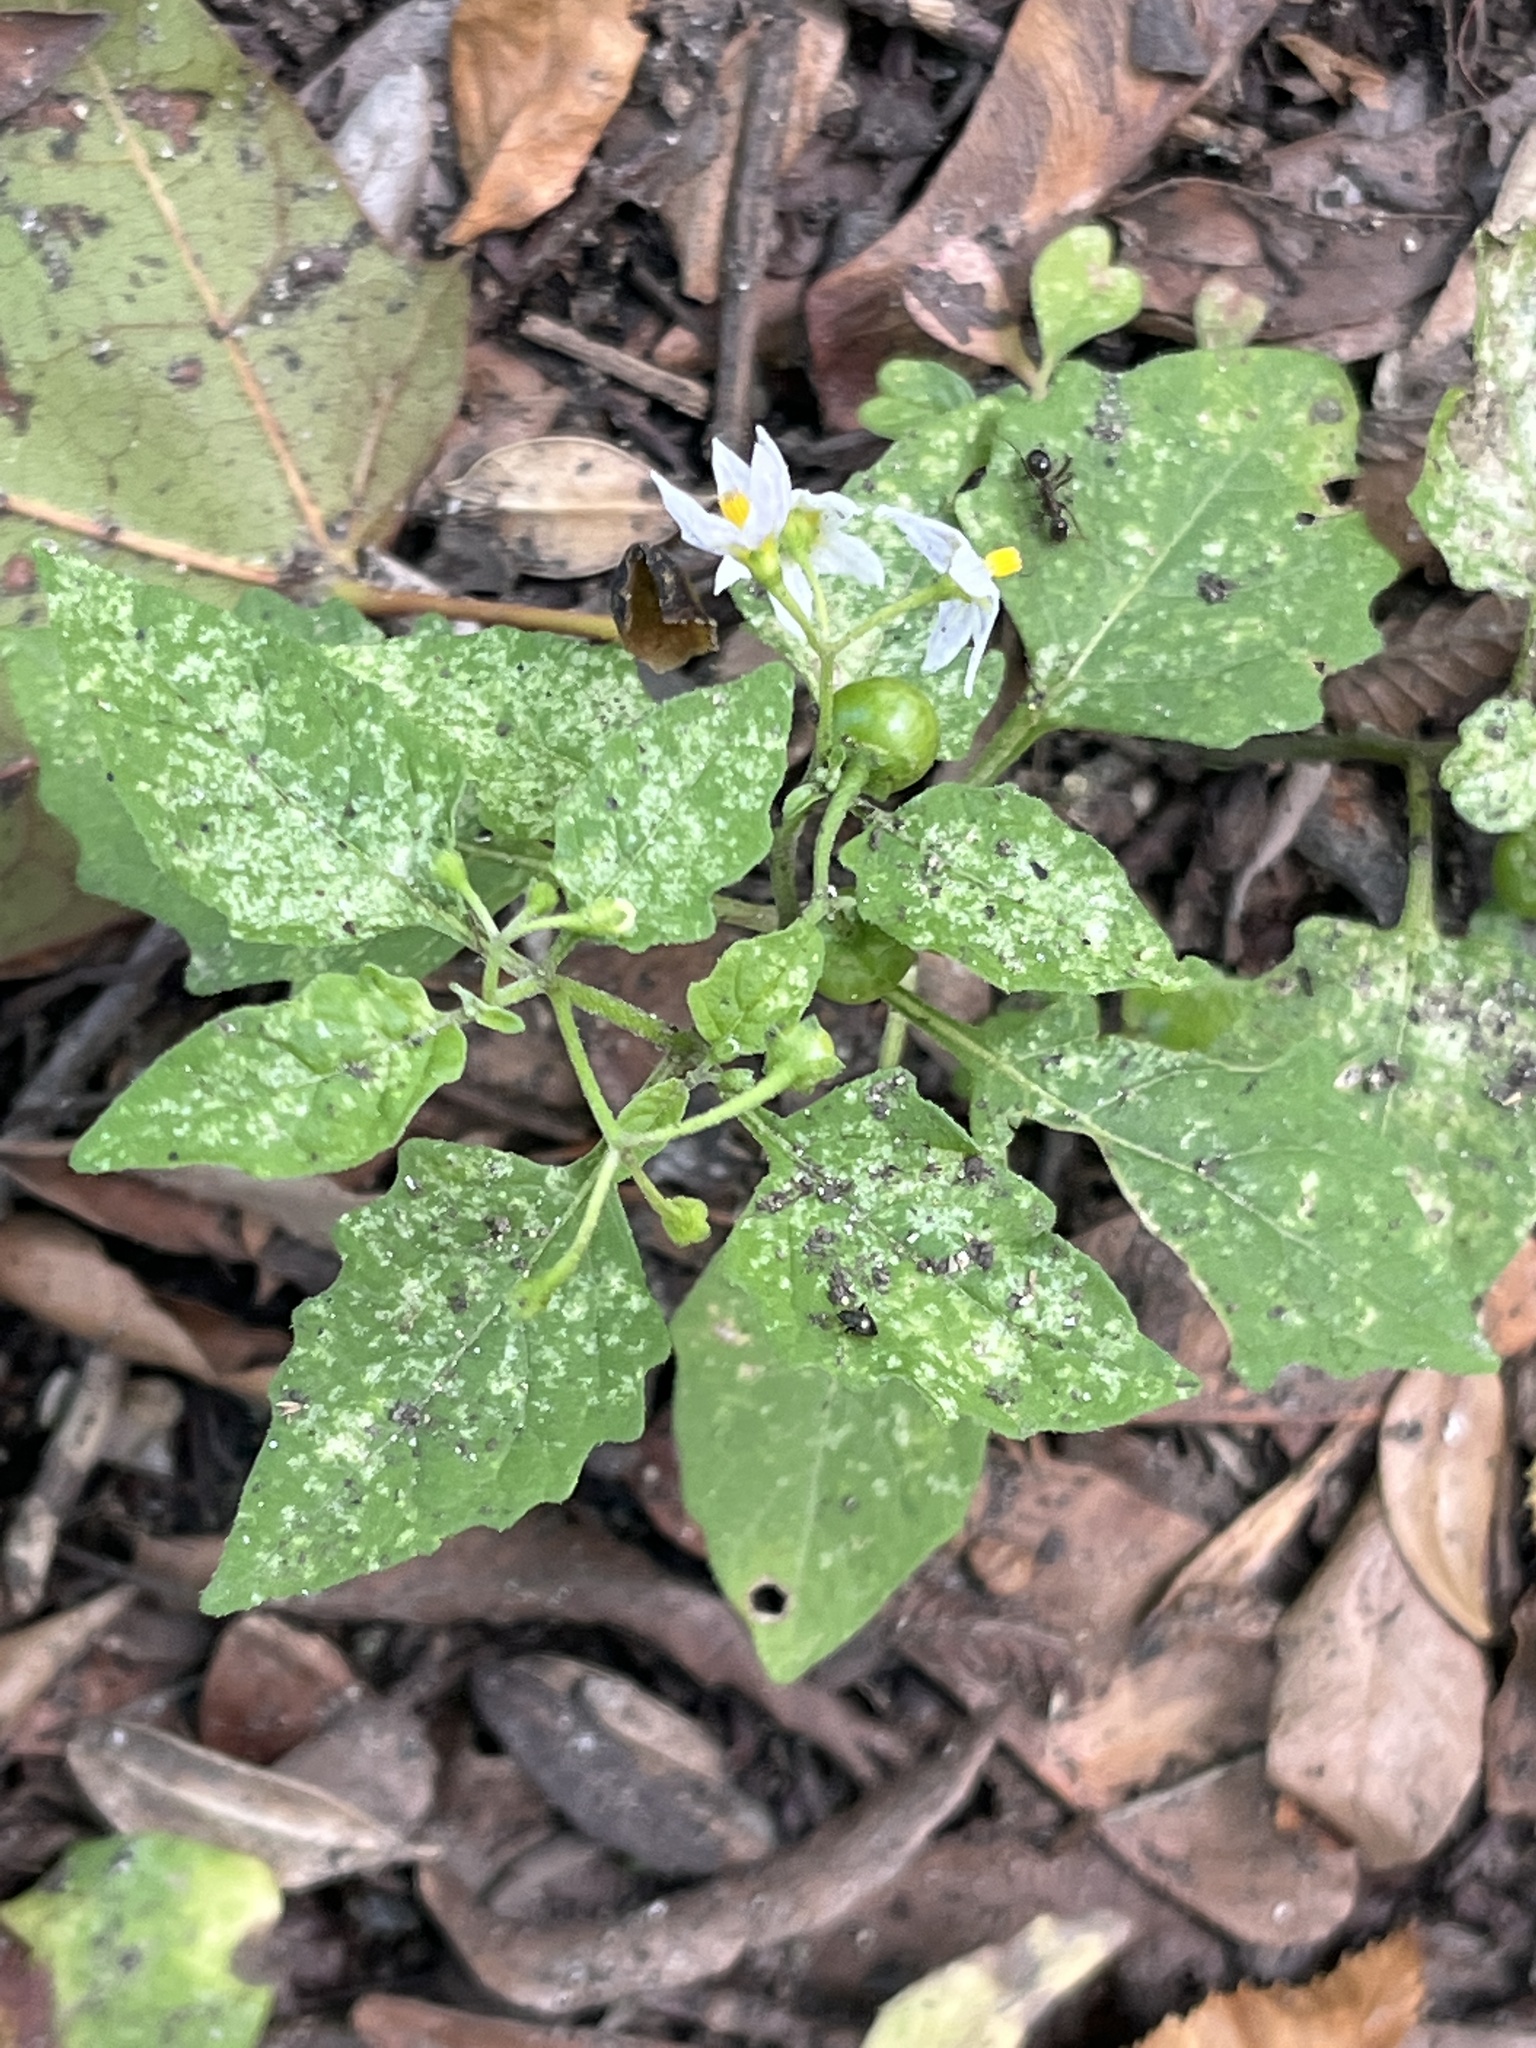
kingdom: Plantae
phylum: Tracheophyta
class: Magnoliopsida
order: Solanales
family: Solanaceae
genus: Solanum
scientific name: Solanum emulans
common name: Eastern black nightshade
